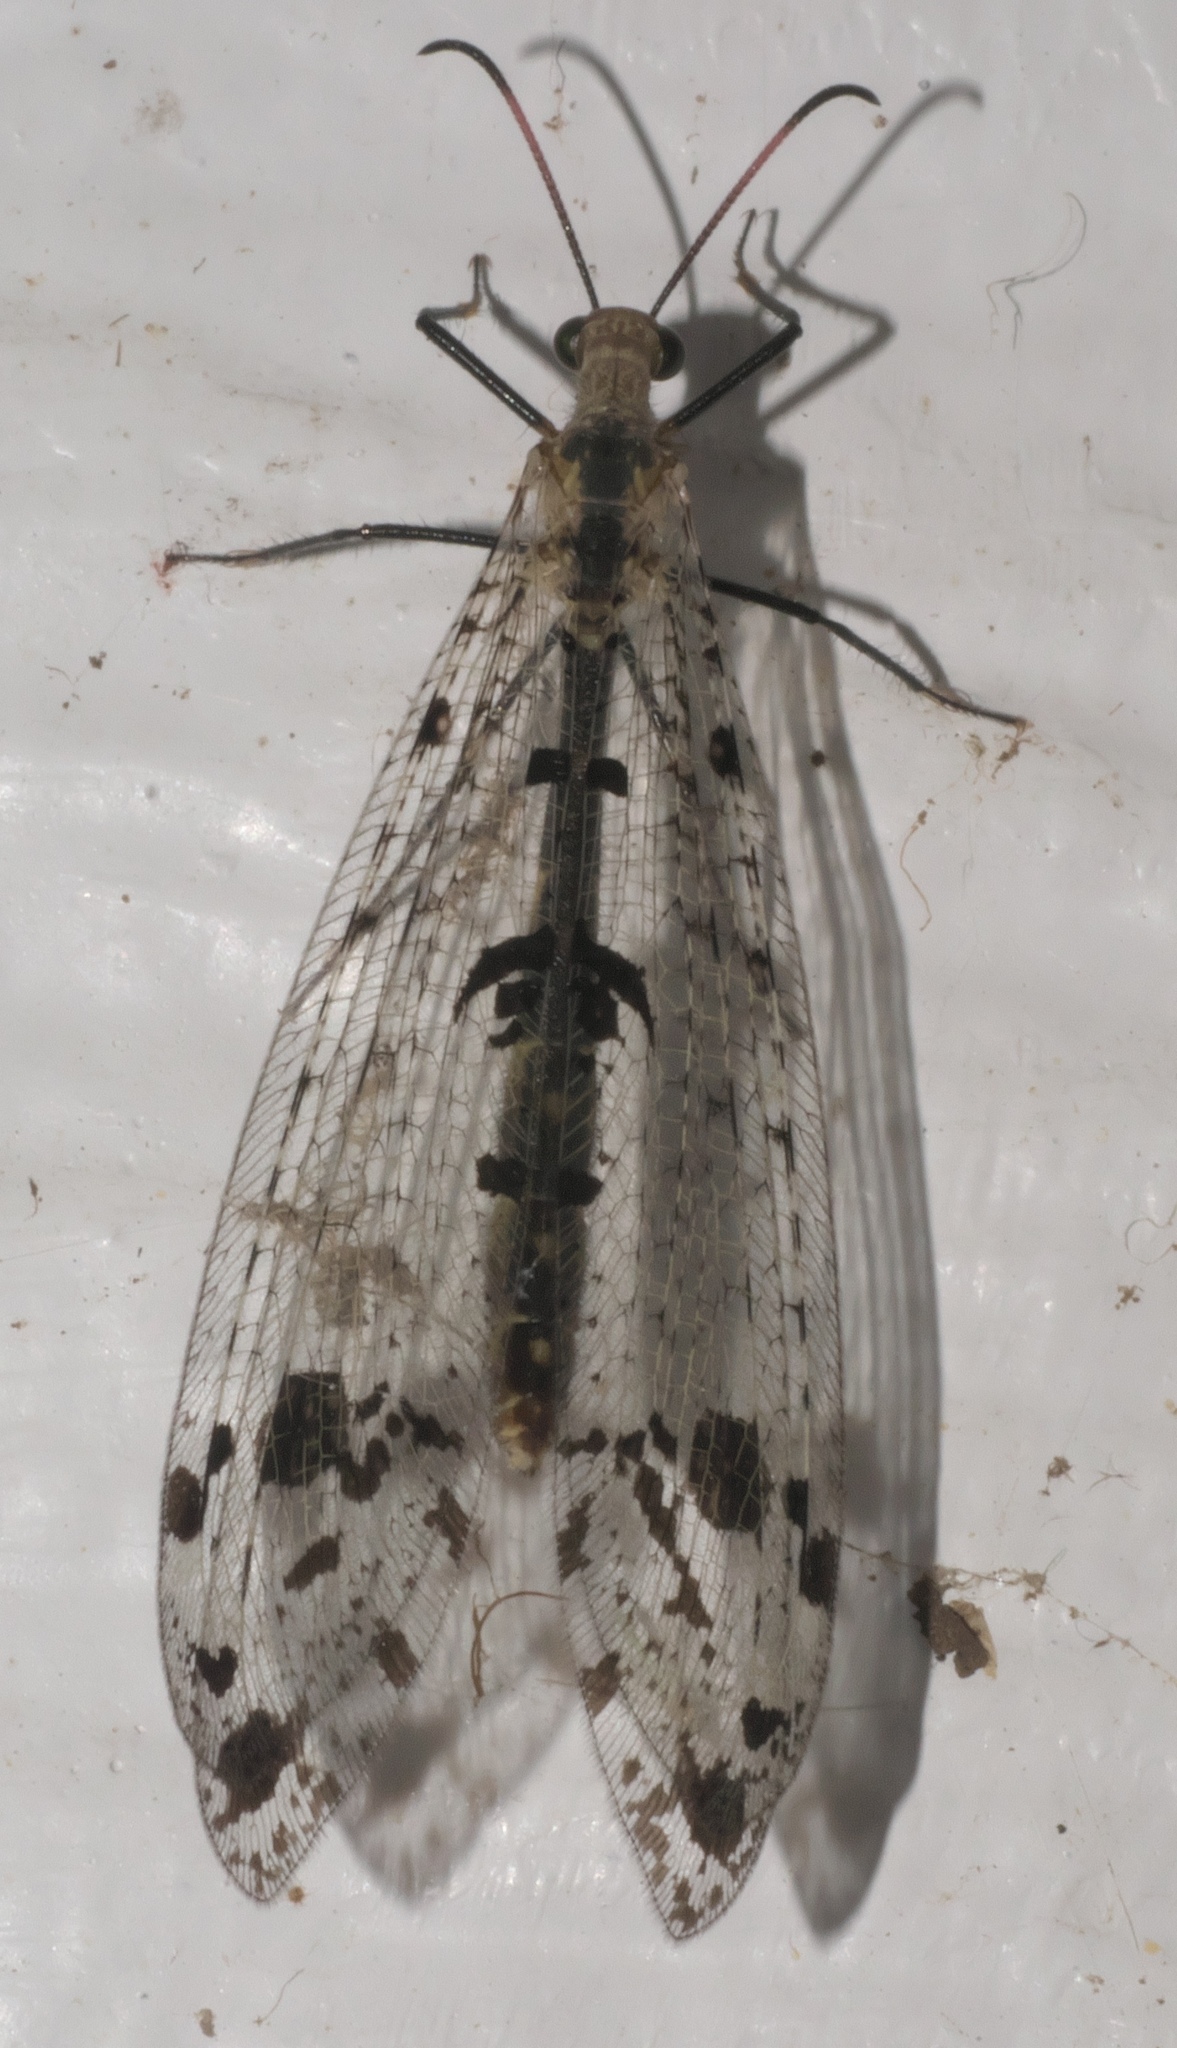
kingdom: Animalia
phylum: Arthropoda
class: Insecta
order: Neuroptera
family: Myrmeleontidae
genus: Dendroleon
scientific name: Dendroleon obsoletus
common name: Eastern spotted-winged antlion
